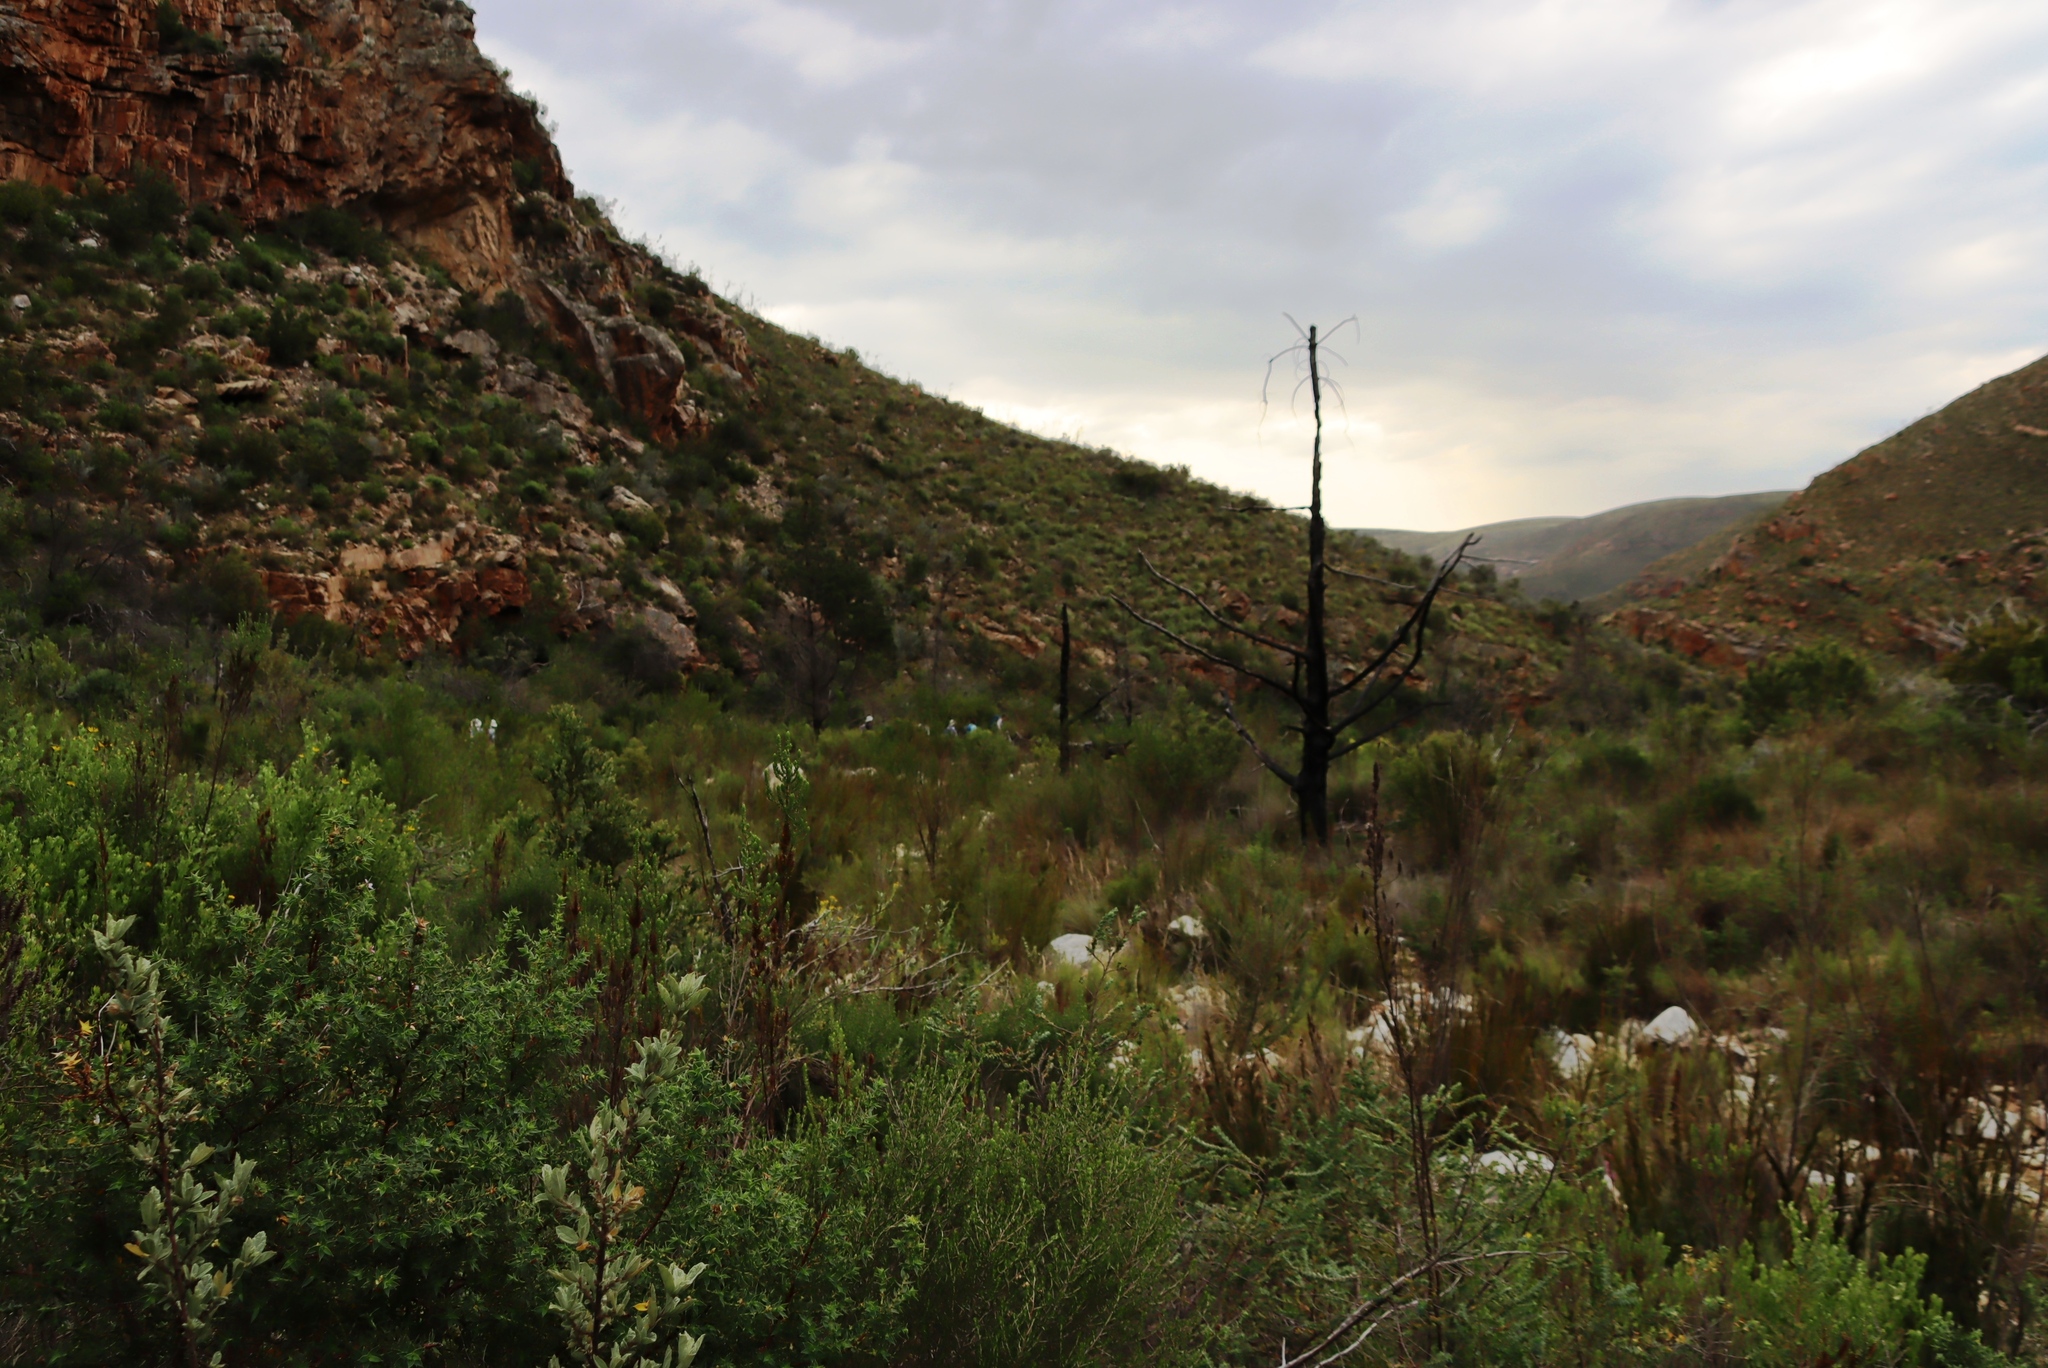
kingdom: Plantae
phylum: Tracheophyta
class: Pinopsida
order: Pinales
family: Cupressaceae
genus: Widdringtonia
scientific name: Widdringtonia schwarzii
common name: Baviaans cedar
